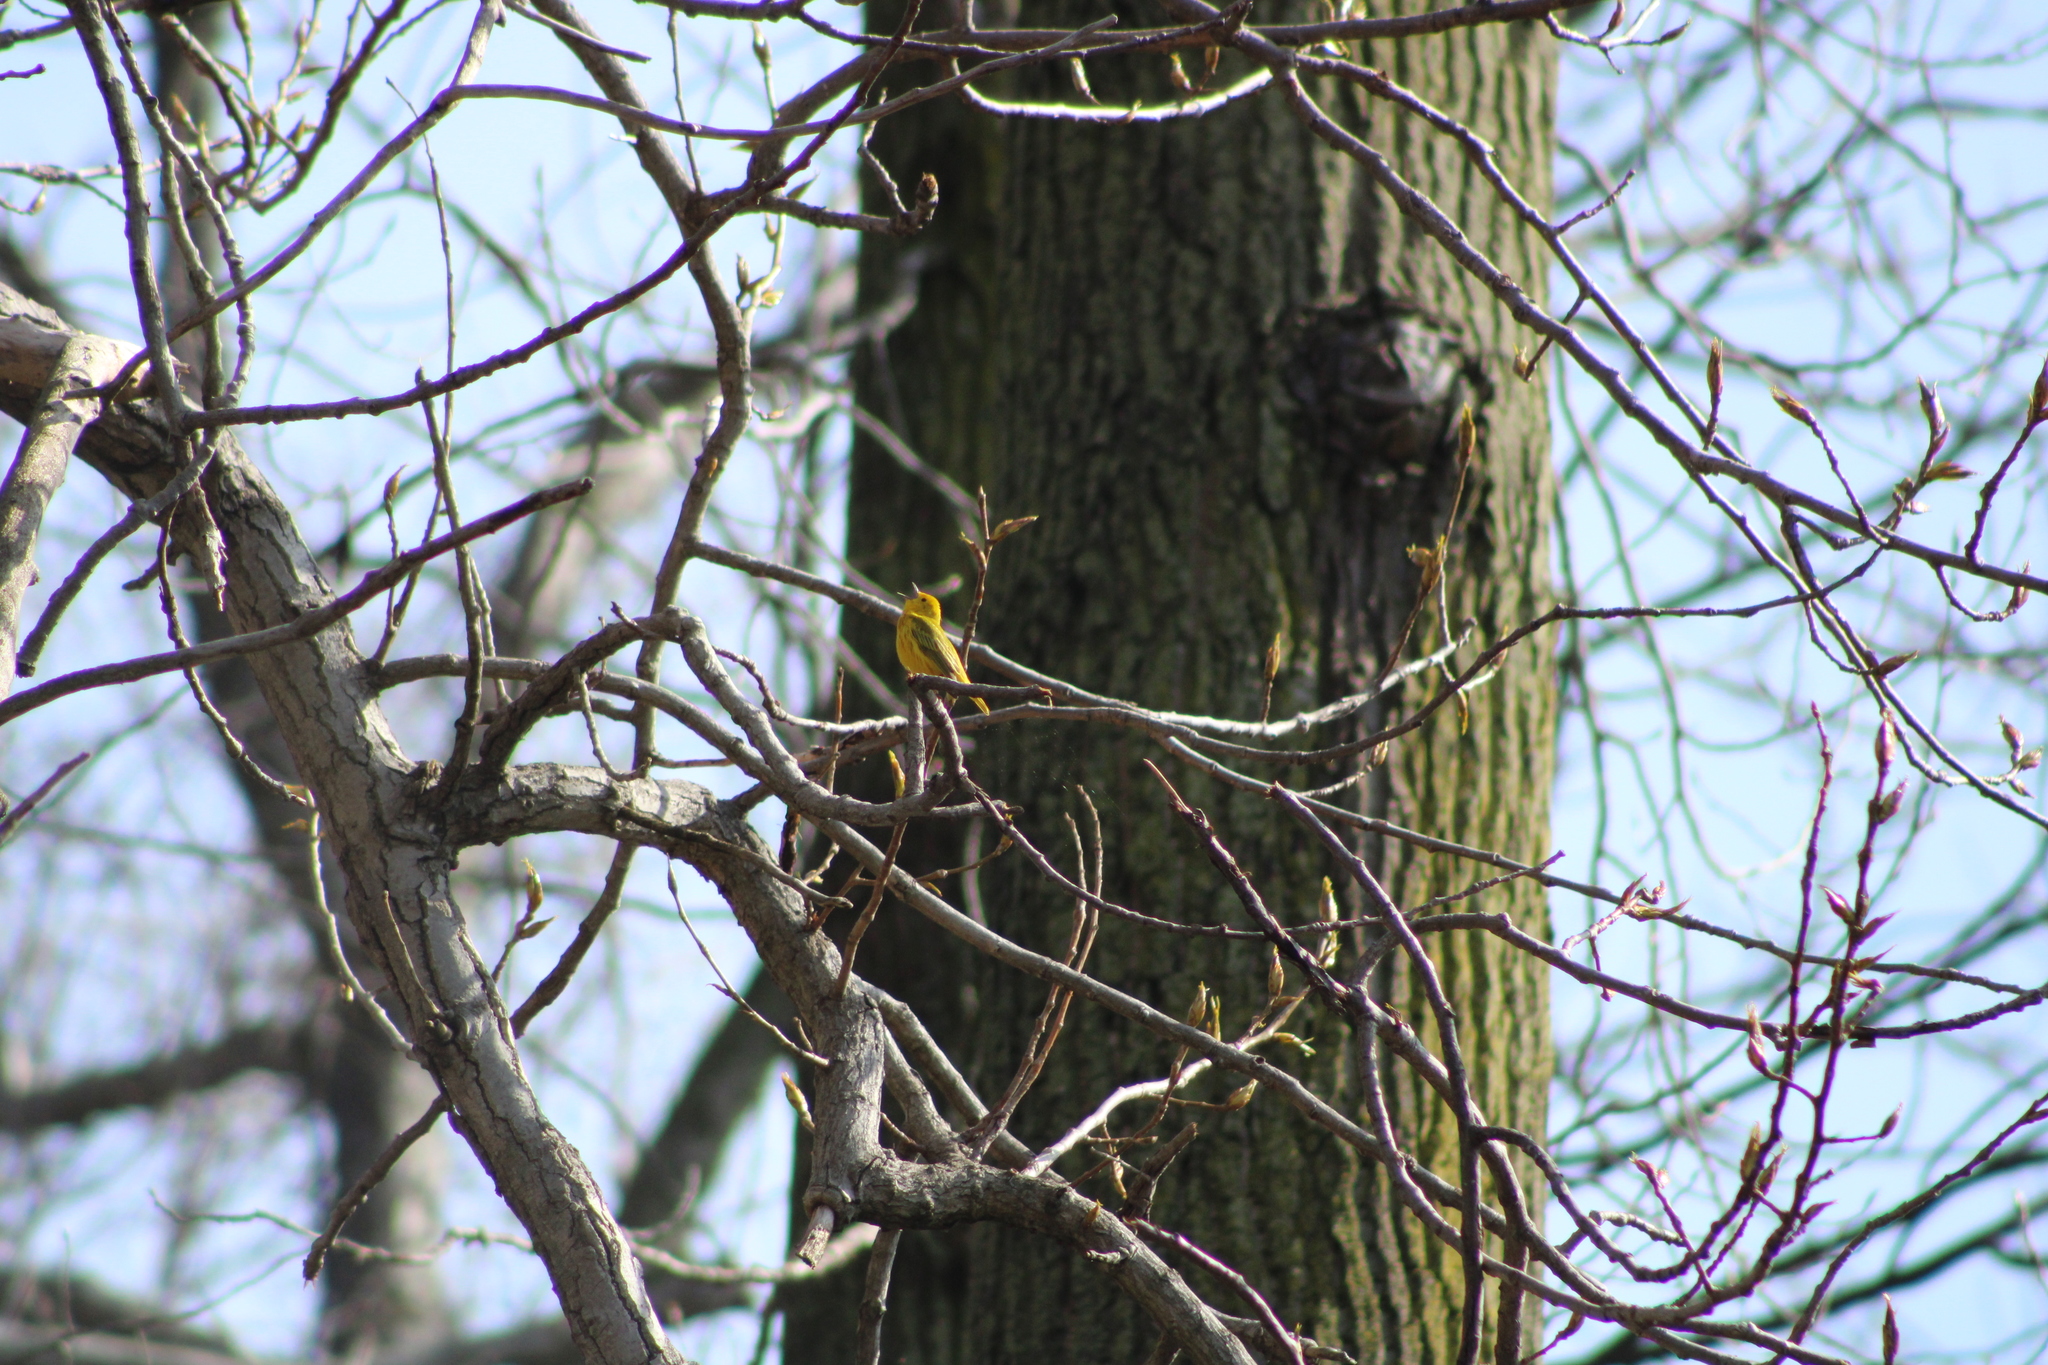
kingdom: Animalia
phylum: Chordata
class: Aves
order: Passeriformes
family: Parulidae
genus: Setophaga
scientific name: Setophaga petechia
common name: Yellow warbler
